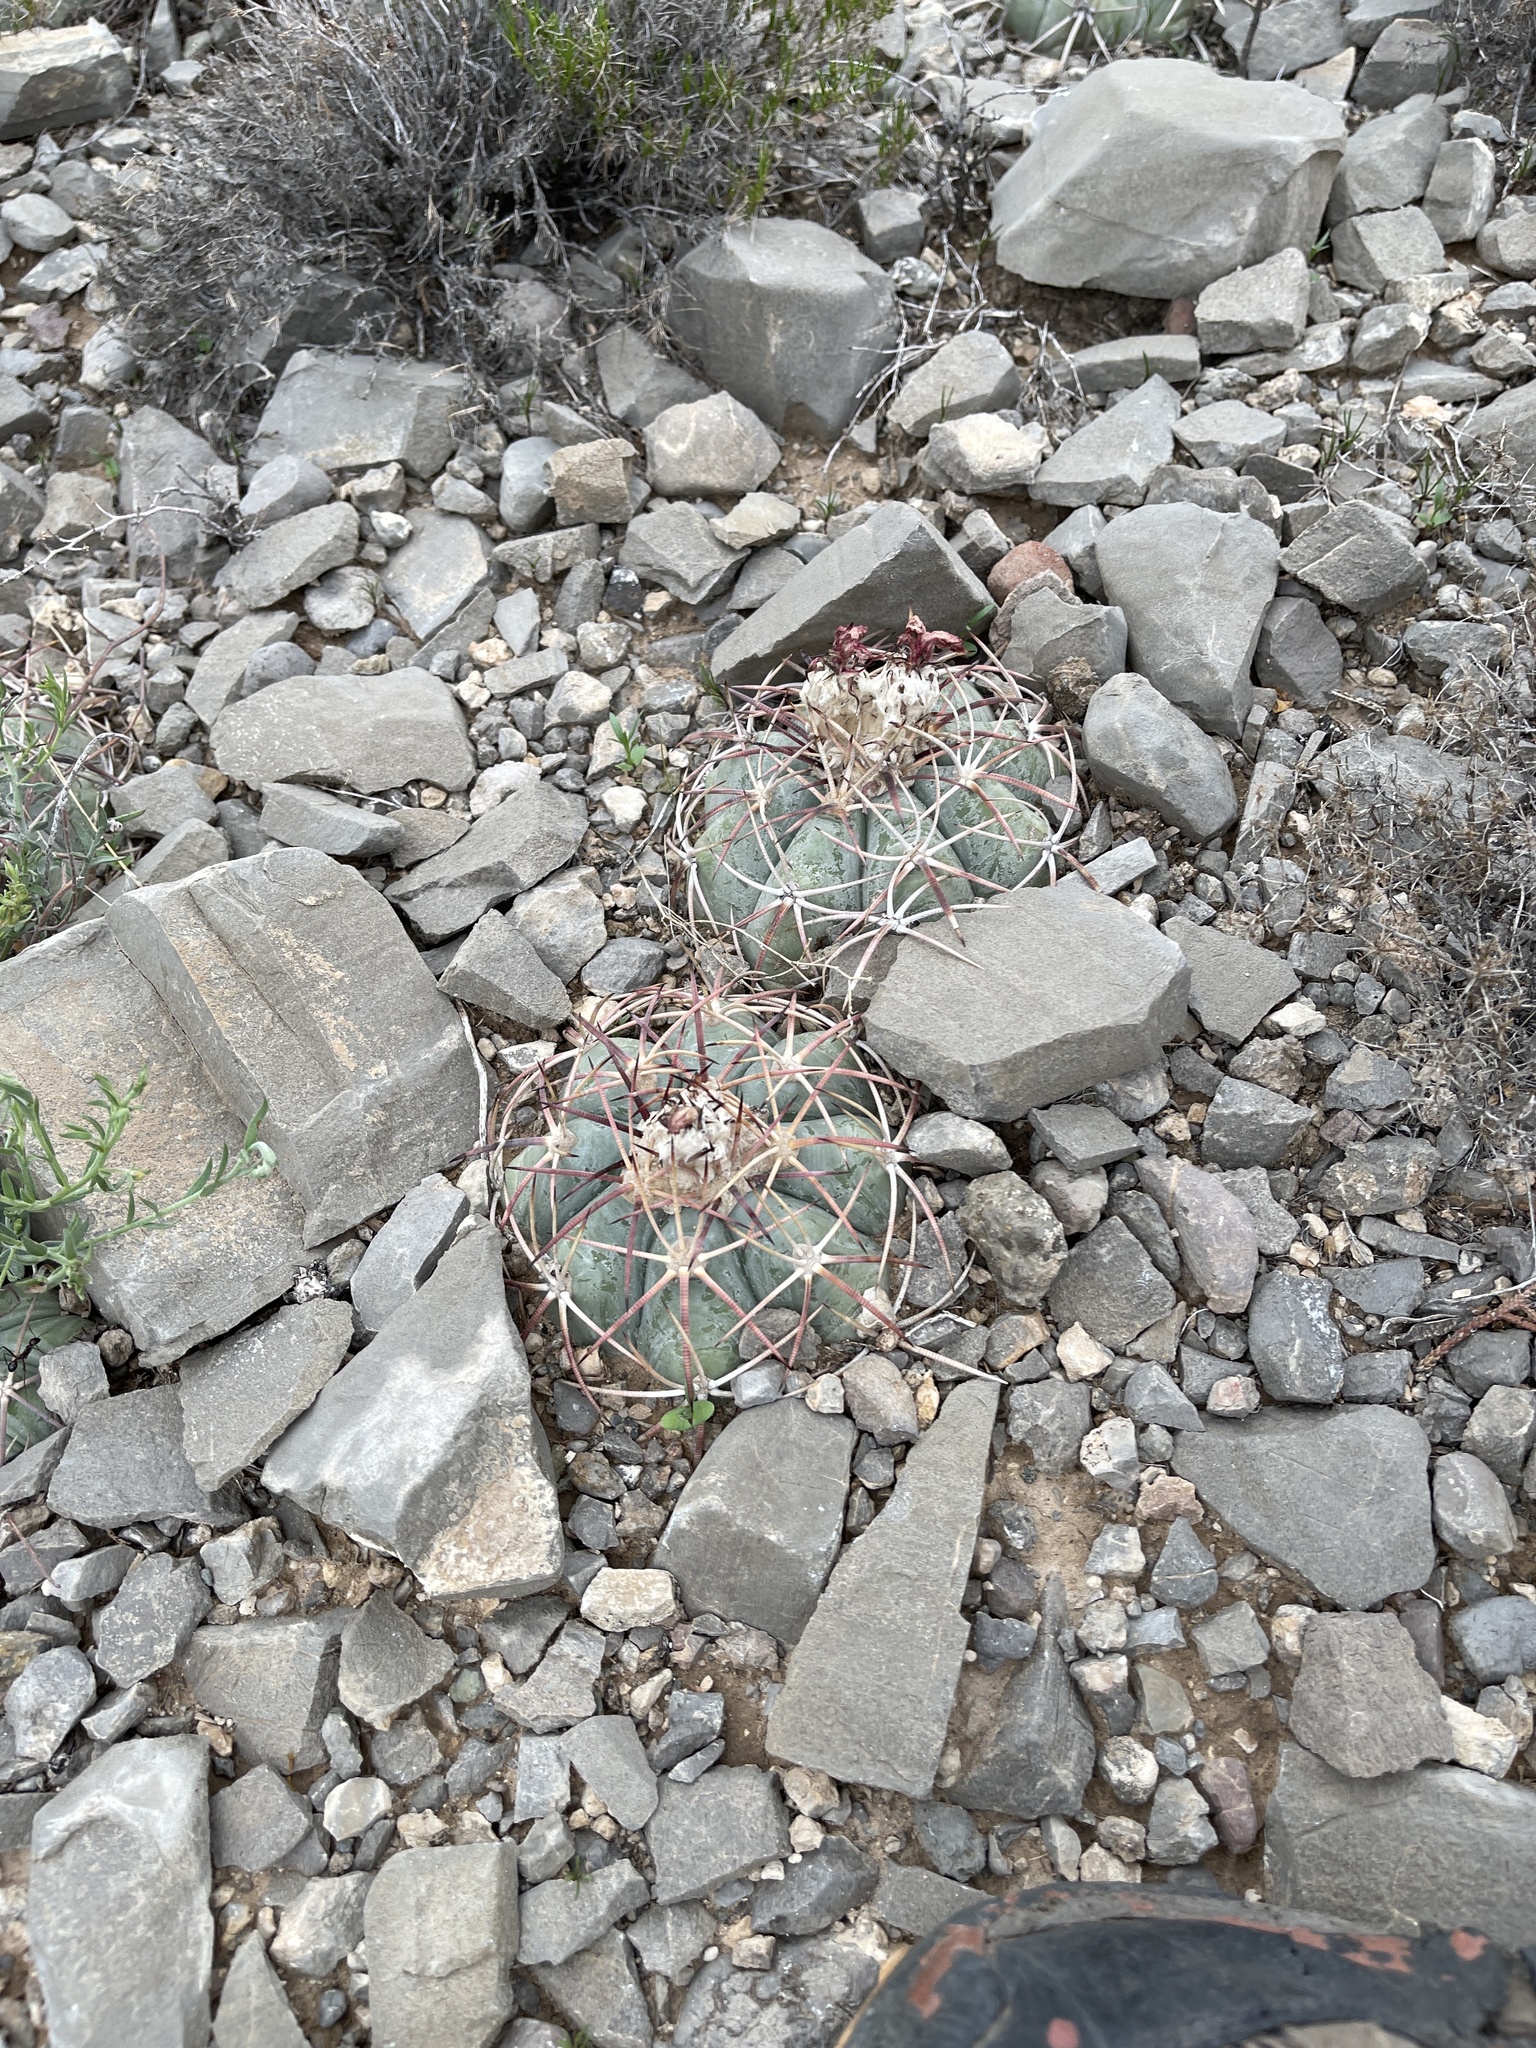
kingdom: Plantae
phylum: Tracheophyta
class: Magnoliopsida
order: Caryophyllales
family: Cactaceae
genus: Echinocactus
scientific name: Echinocactus horizonthalonius
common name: Devilshead
